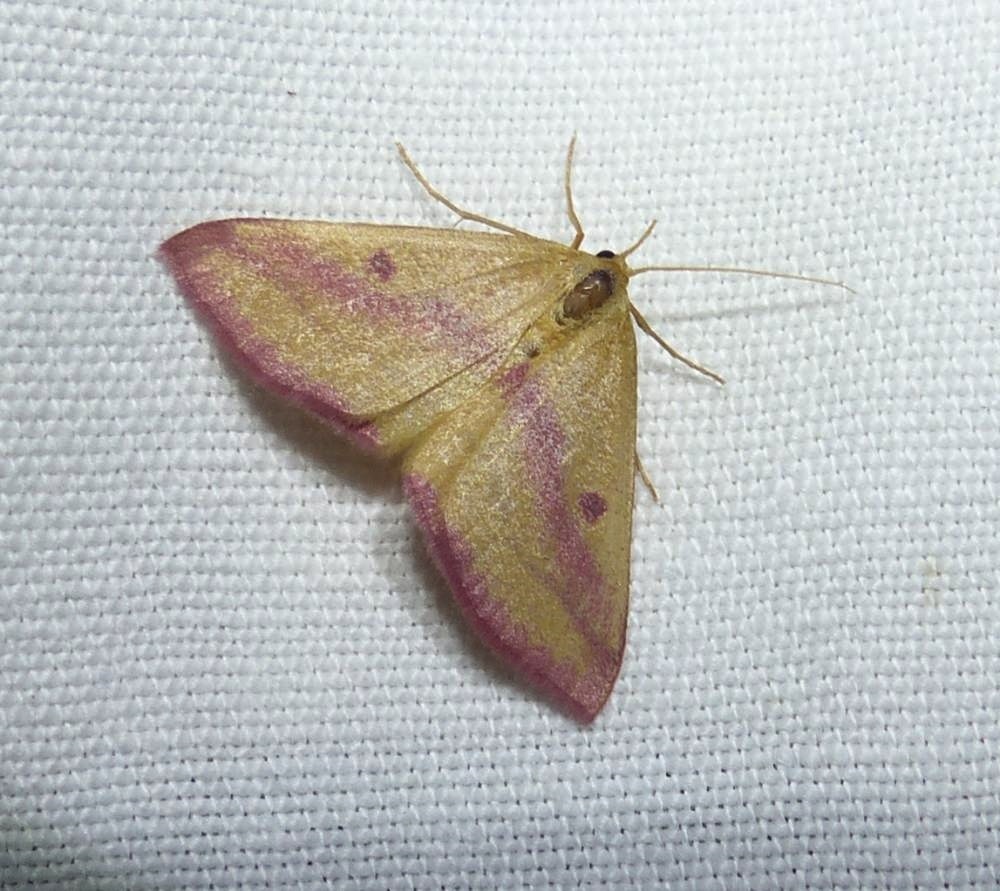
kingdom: Animalia
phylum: Arthropoda
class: Insecta
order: Lepidoptera
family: Geometridae
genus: Haematopis
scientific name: Haematopis grataria
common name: Chickweed geometer
